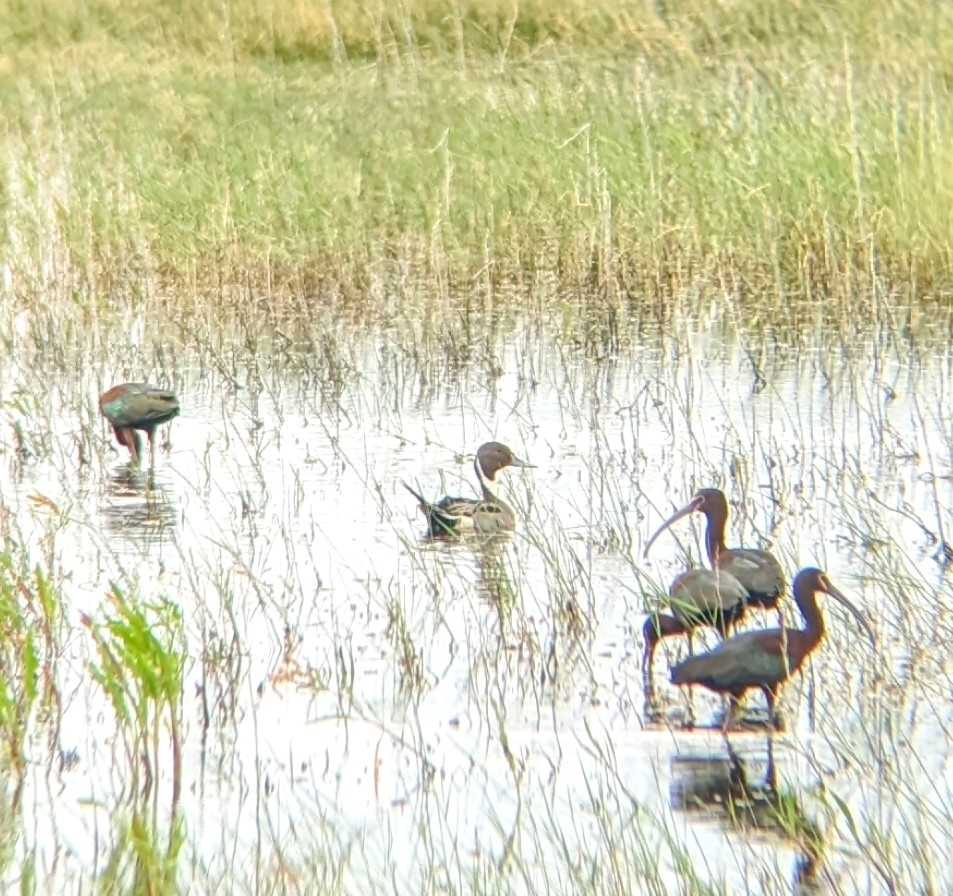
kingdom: Animalia
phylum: Chordata
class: Aves
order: Anseriformes
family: Anatidae
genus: Anas
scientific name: Anas acuta
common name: Northern pintail
